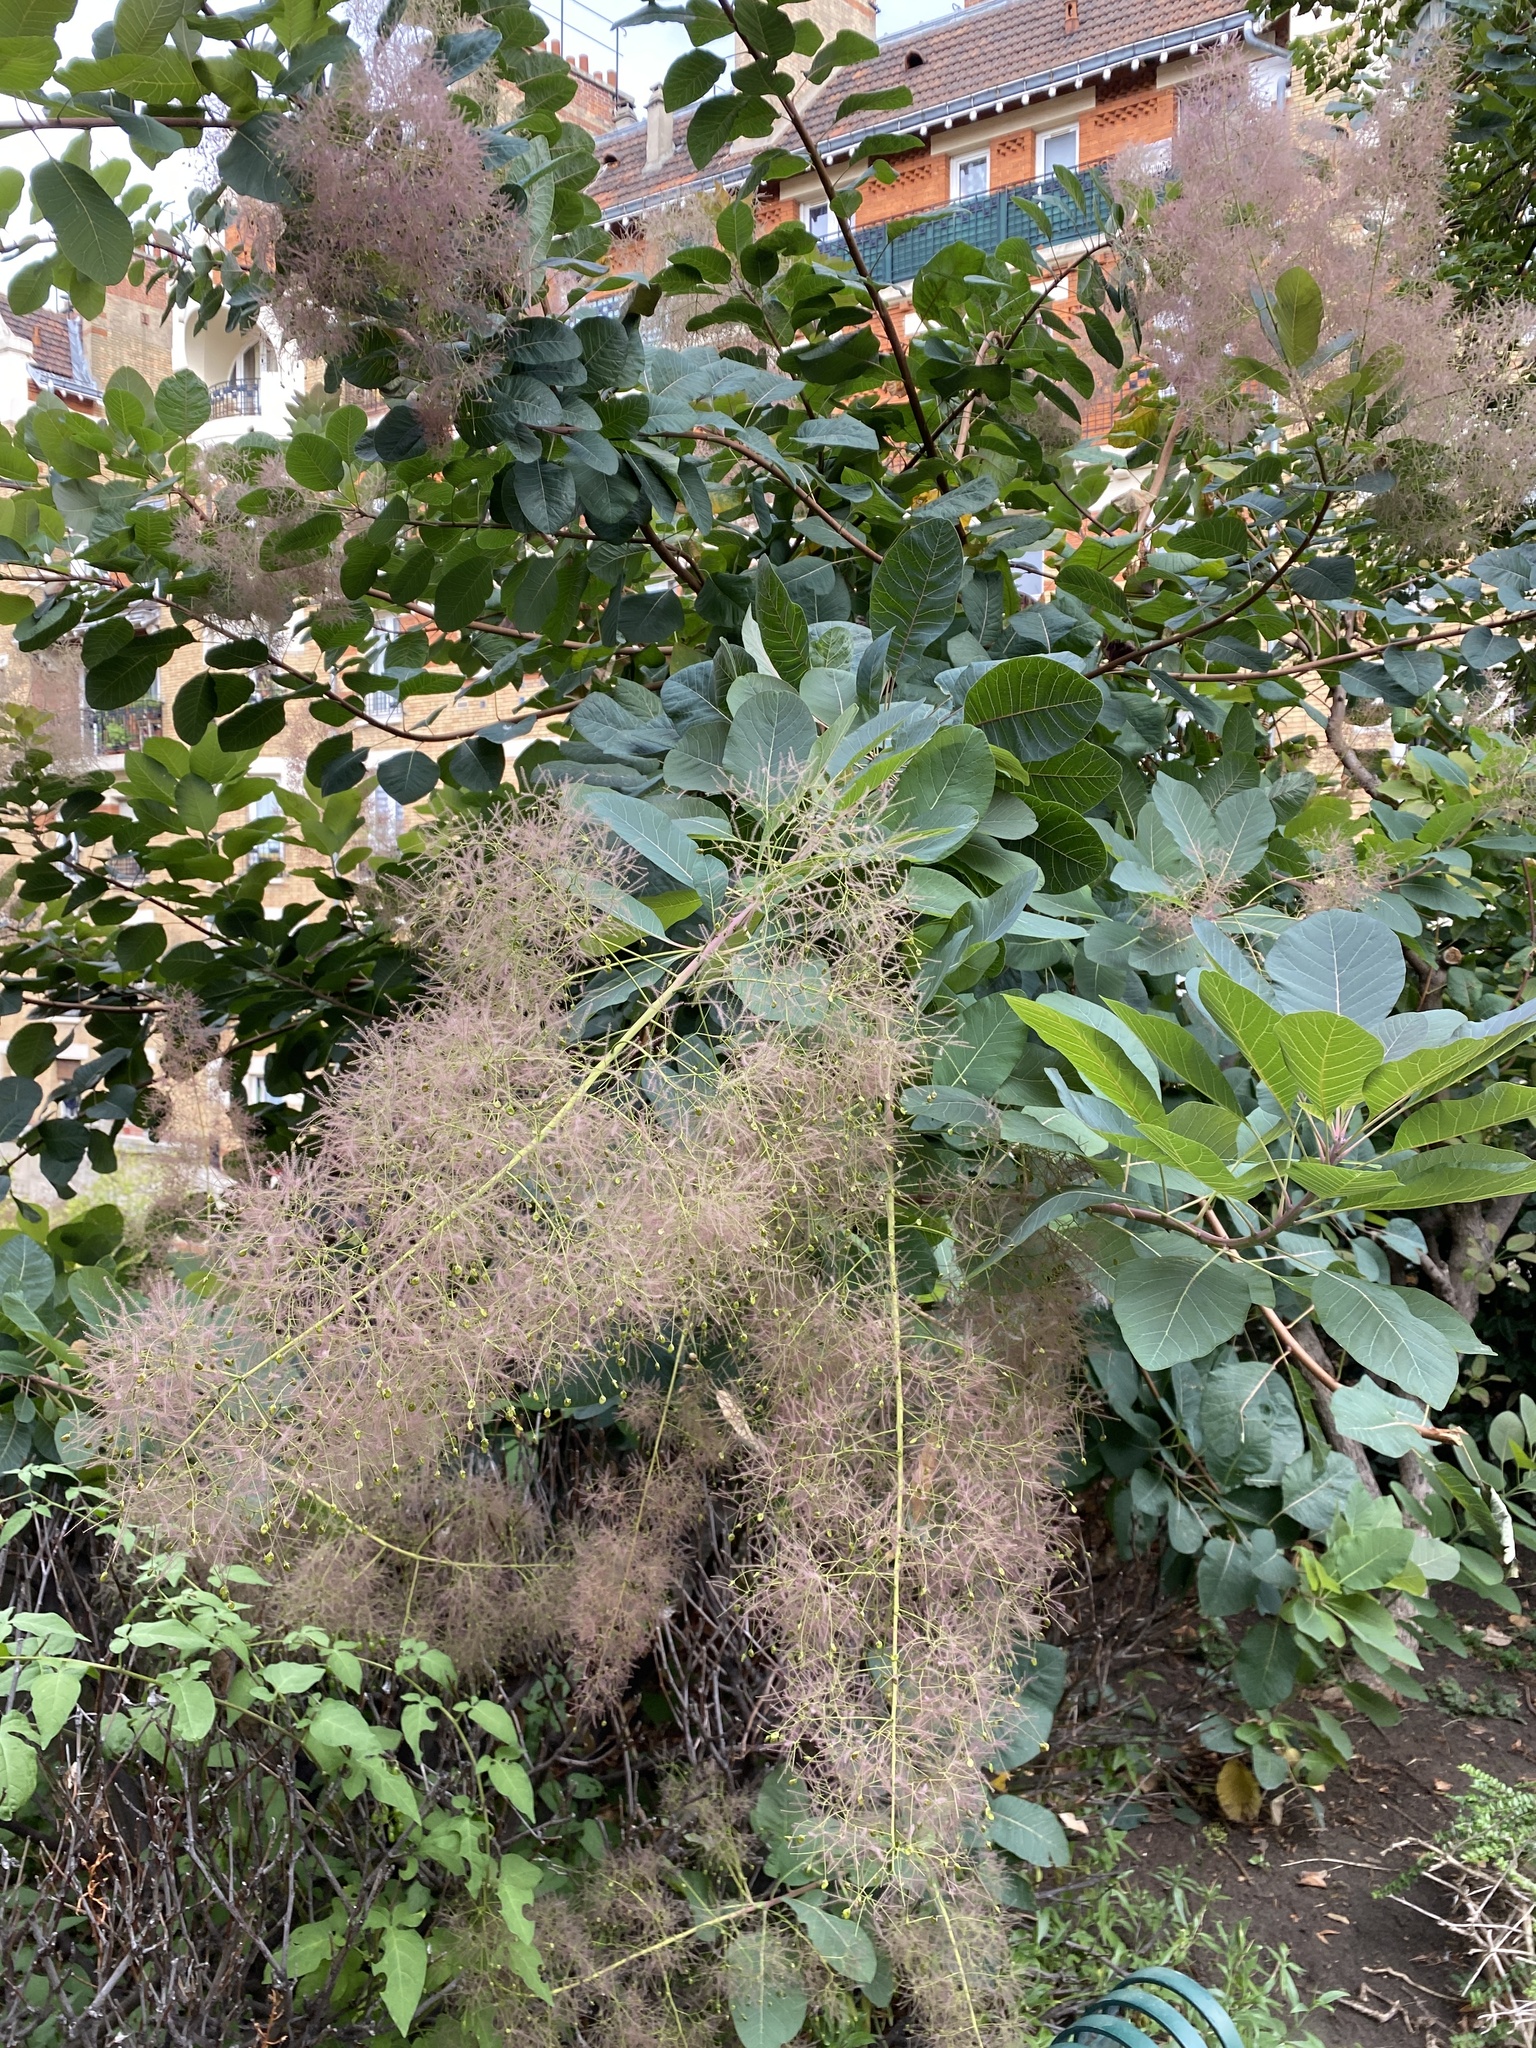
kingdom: Plantae
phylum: Tracheophyta
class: Magnoliopsida
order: Sapindales
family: Anacardiaceae
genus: Cotinus
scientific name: Cotinus coggygria
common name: Smoke-tree
